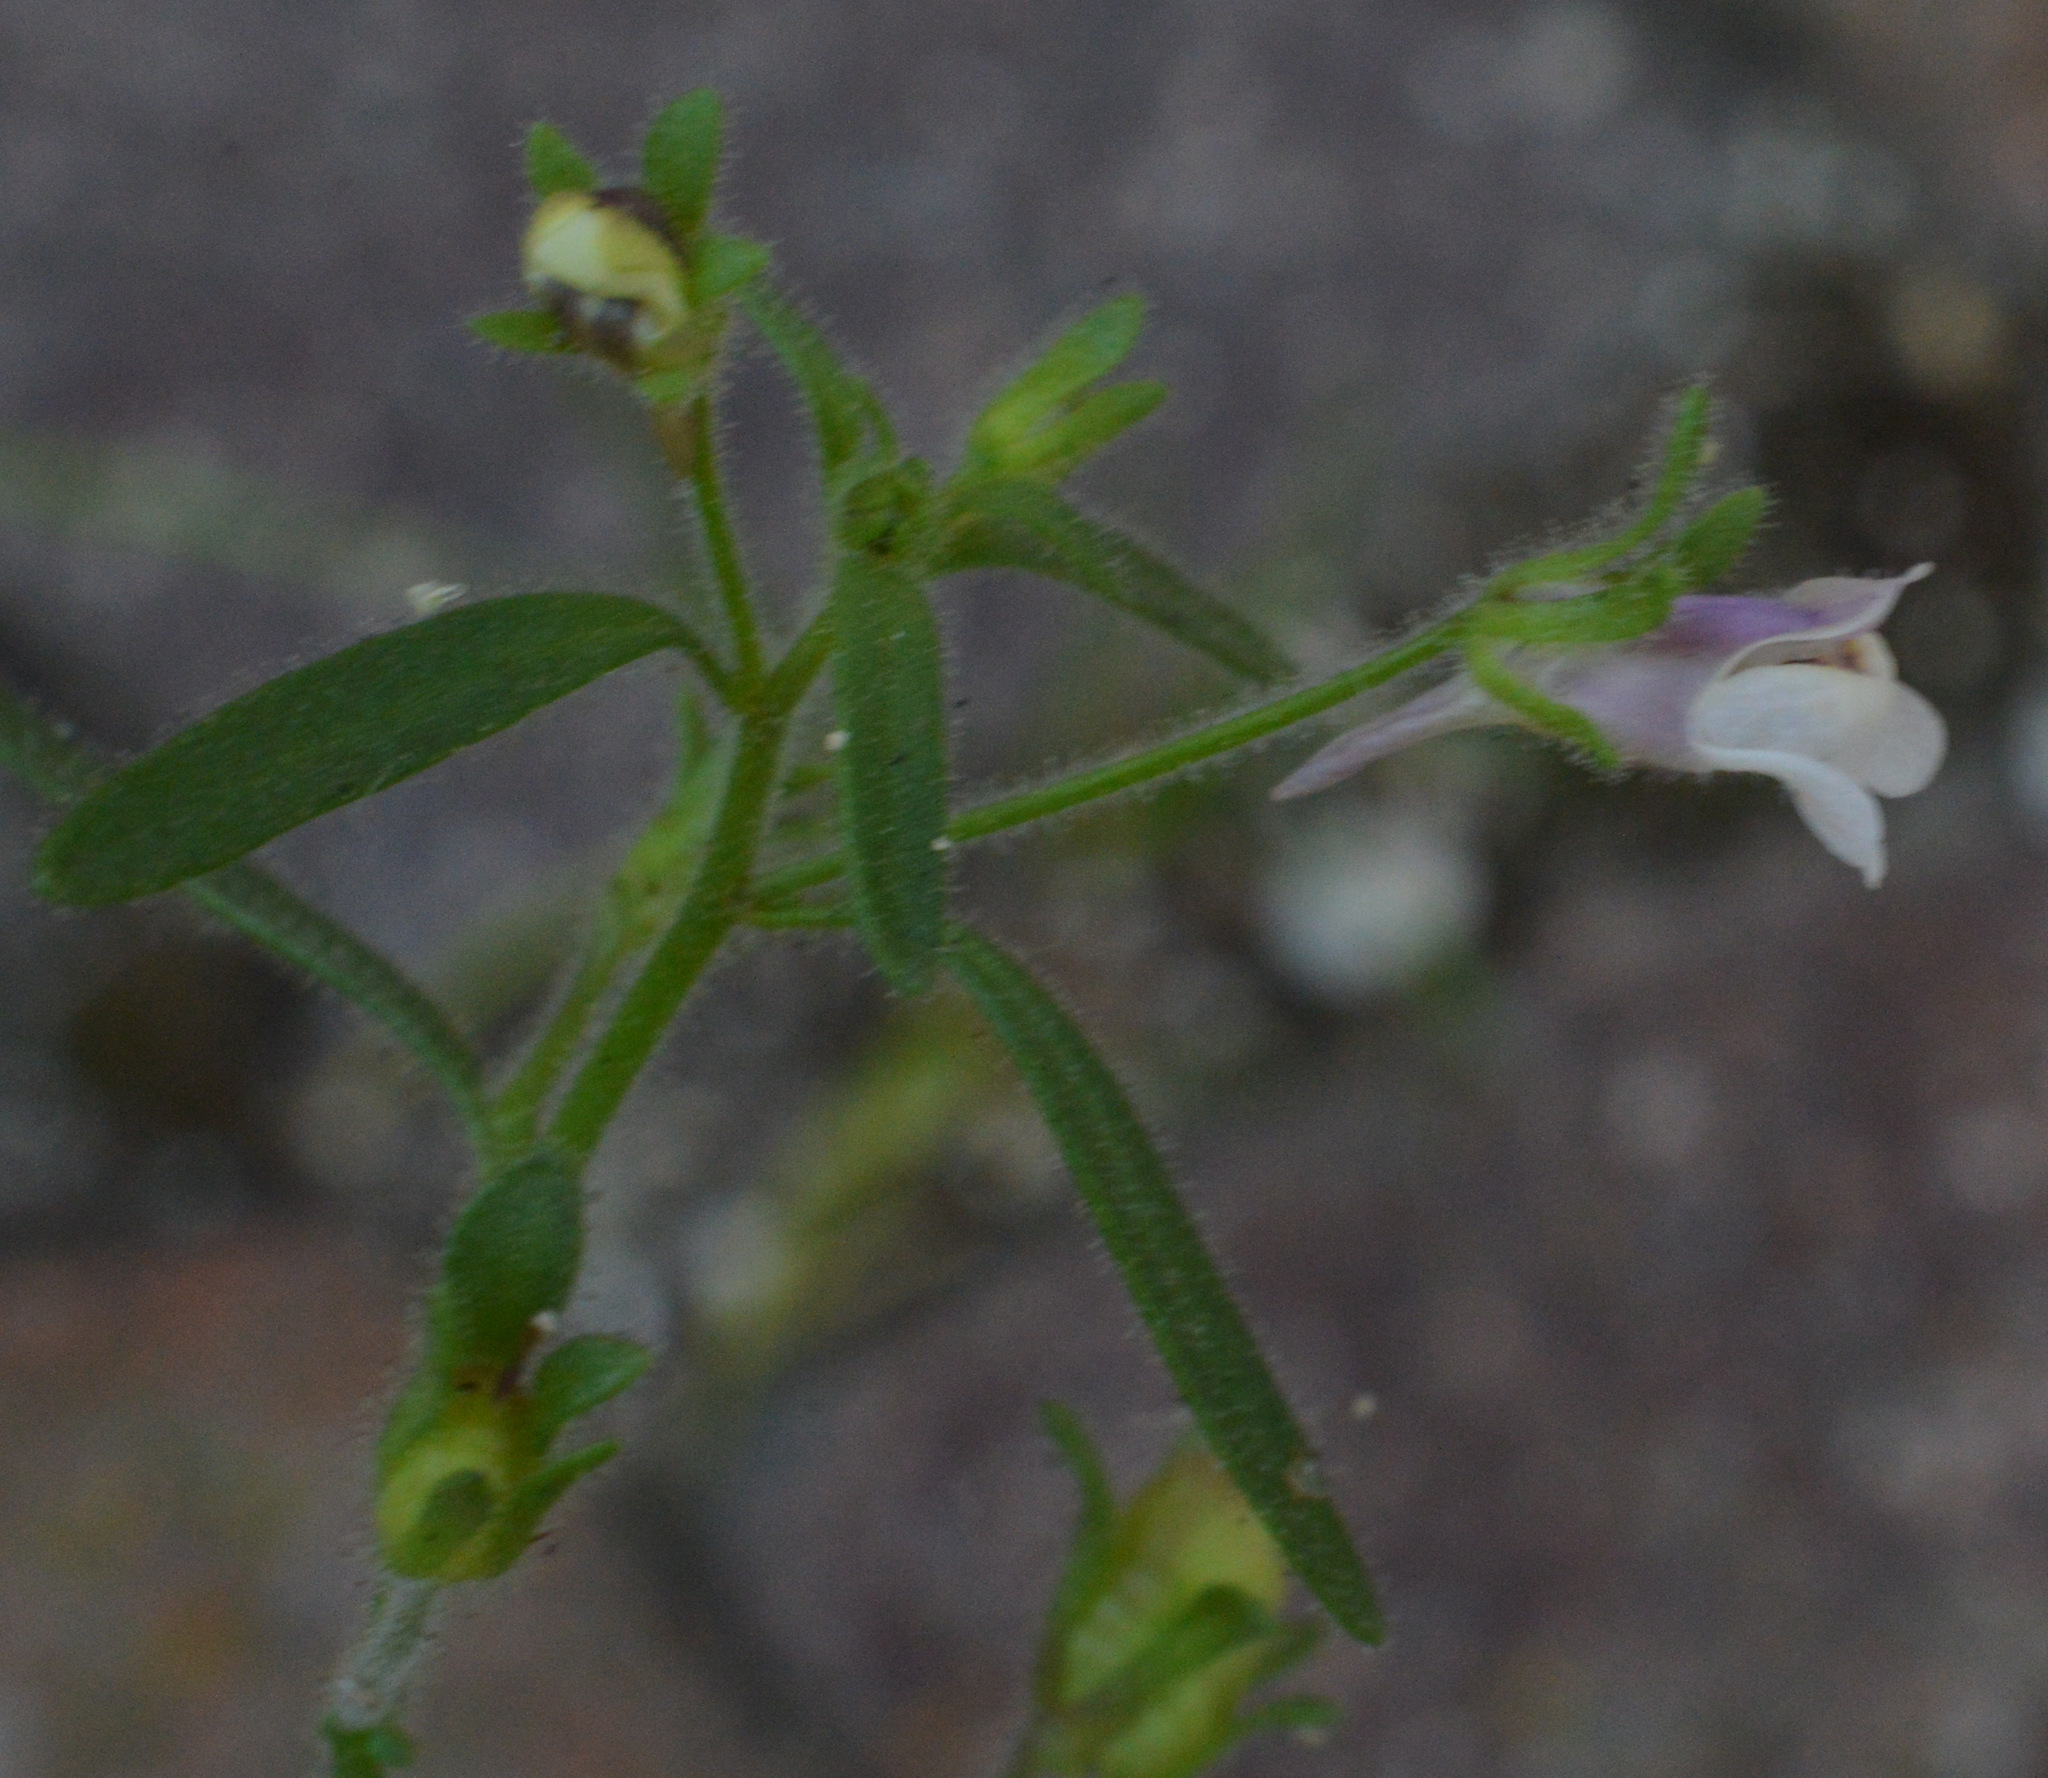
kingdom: Plantae
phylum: Tracheophyta
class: Magnoliopsida
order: Lamiales
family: Plantaginaceae
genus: Chaenorhinum
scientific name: Chaenorhinum minus
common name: Dwarf snapdragon
